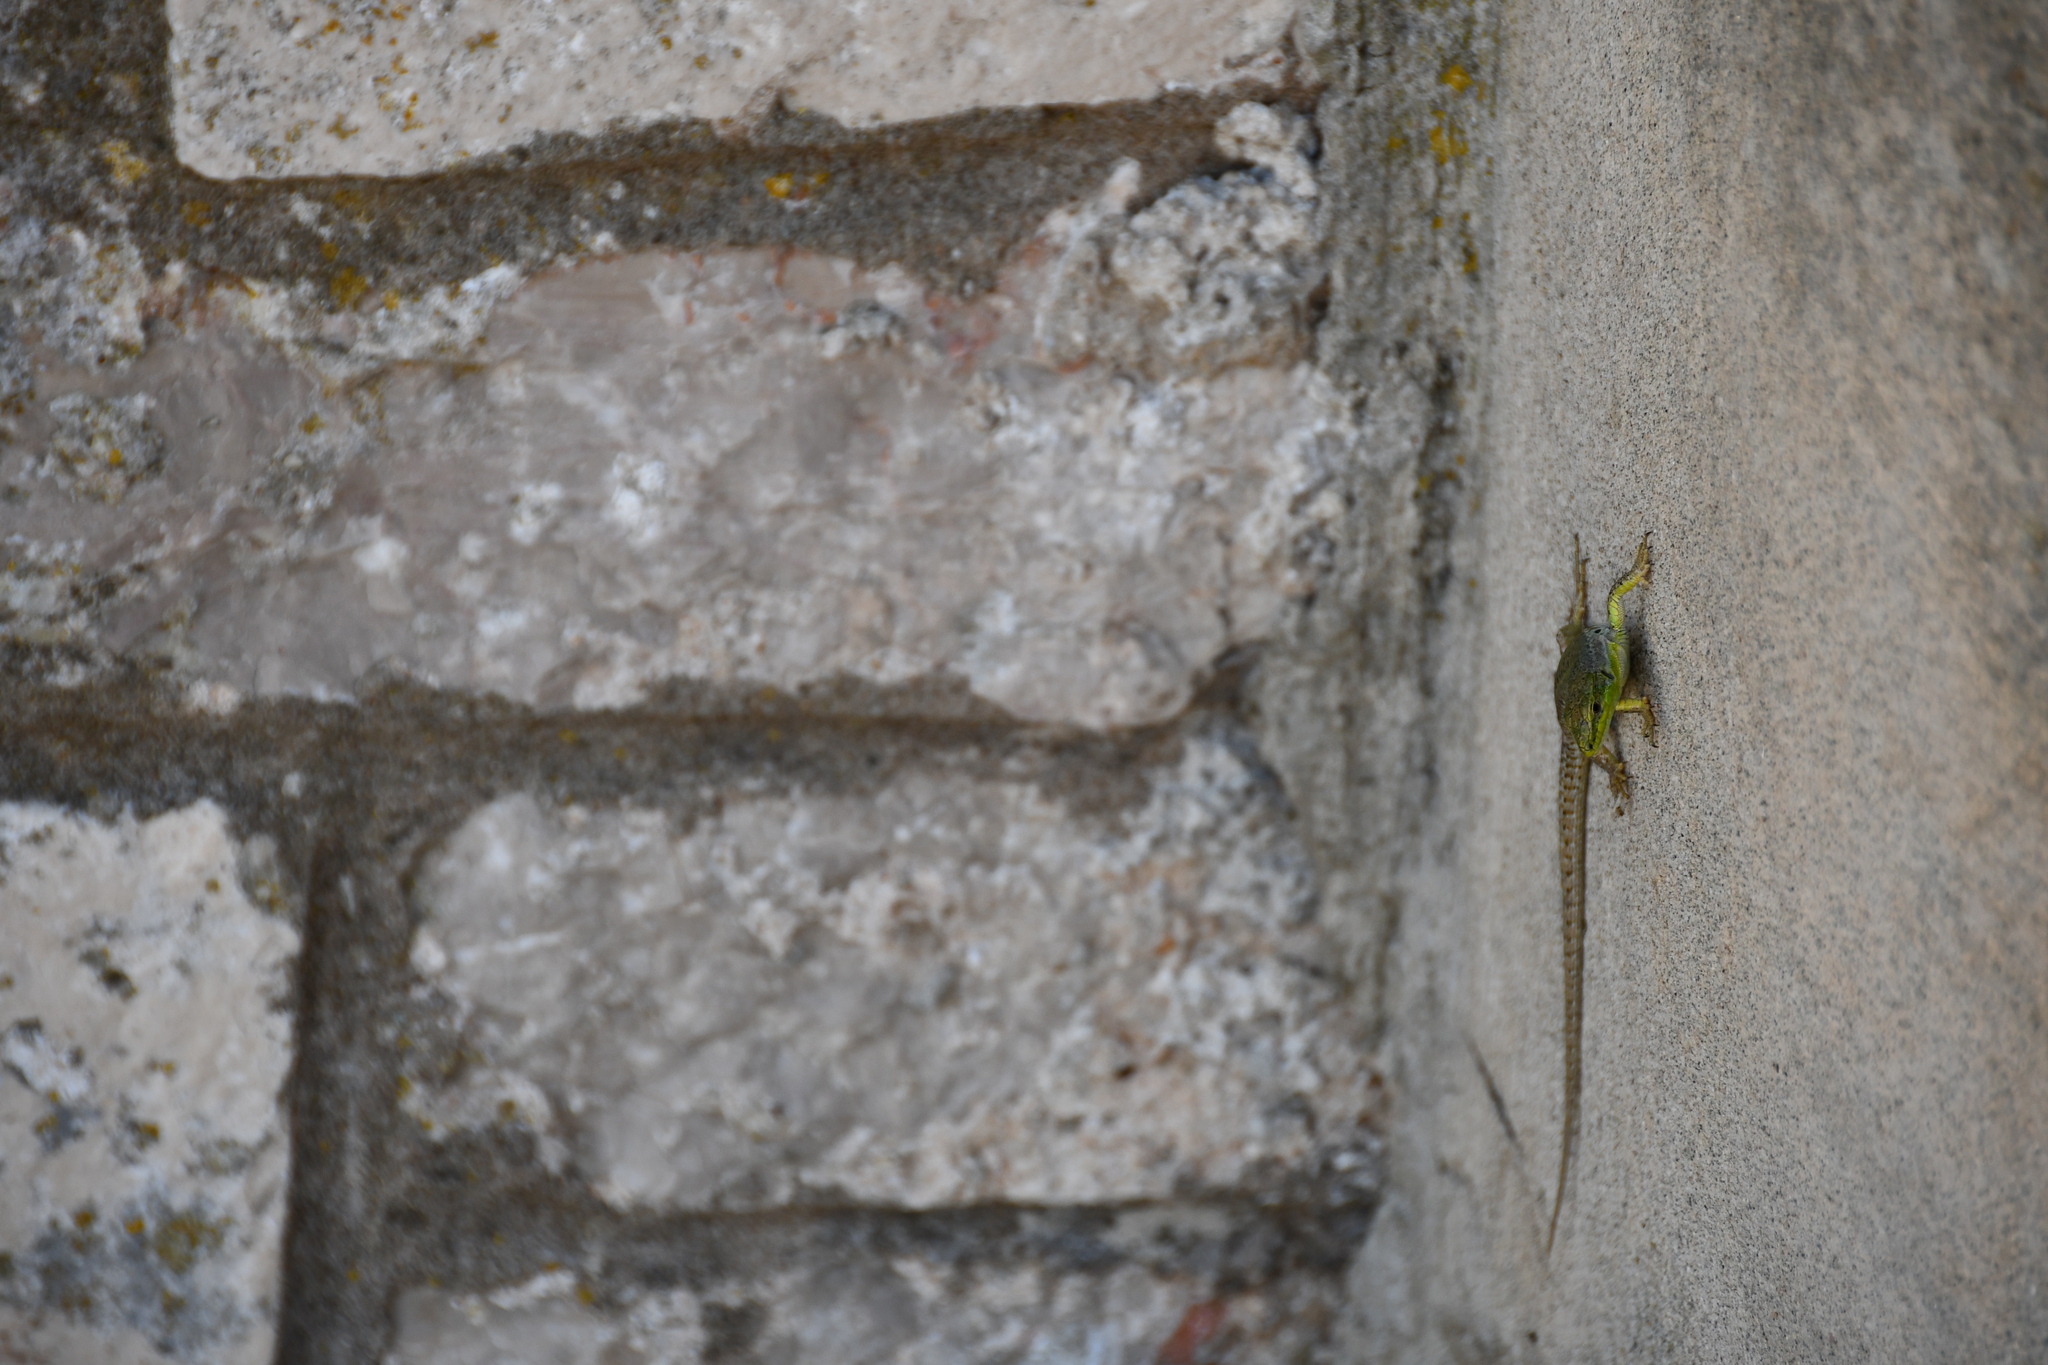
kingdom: Animalia
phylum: Chordata
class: Squamata
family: Lacertidae
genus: Podarcis
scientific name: Podarcis siculus
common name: Italian wall lizard
